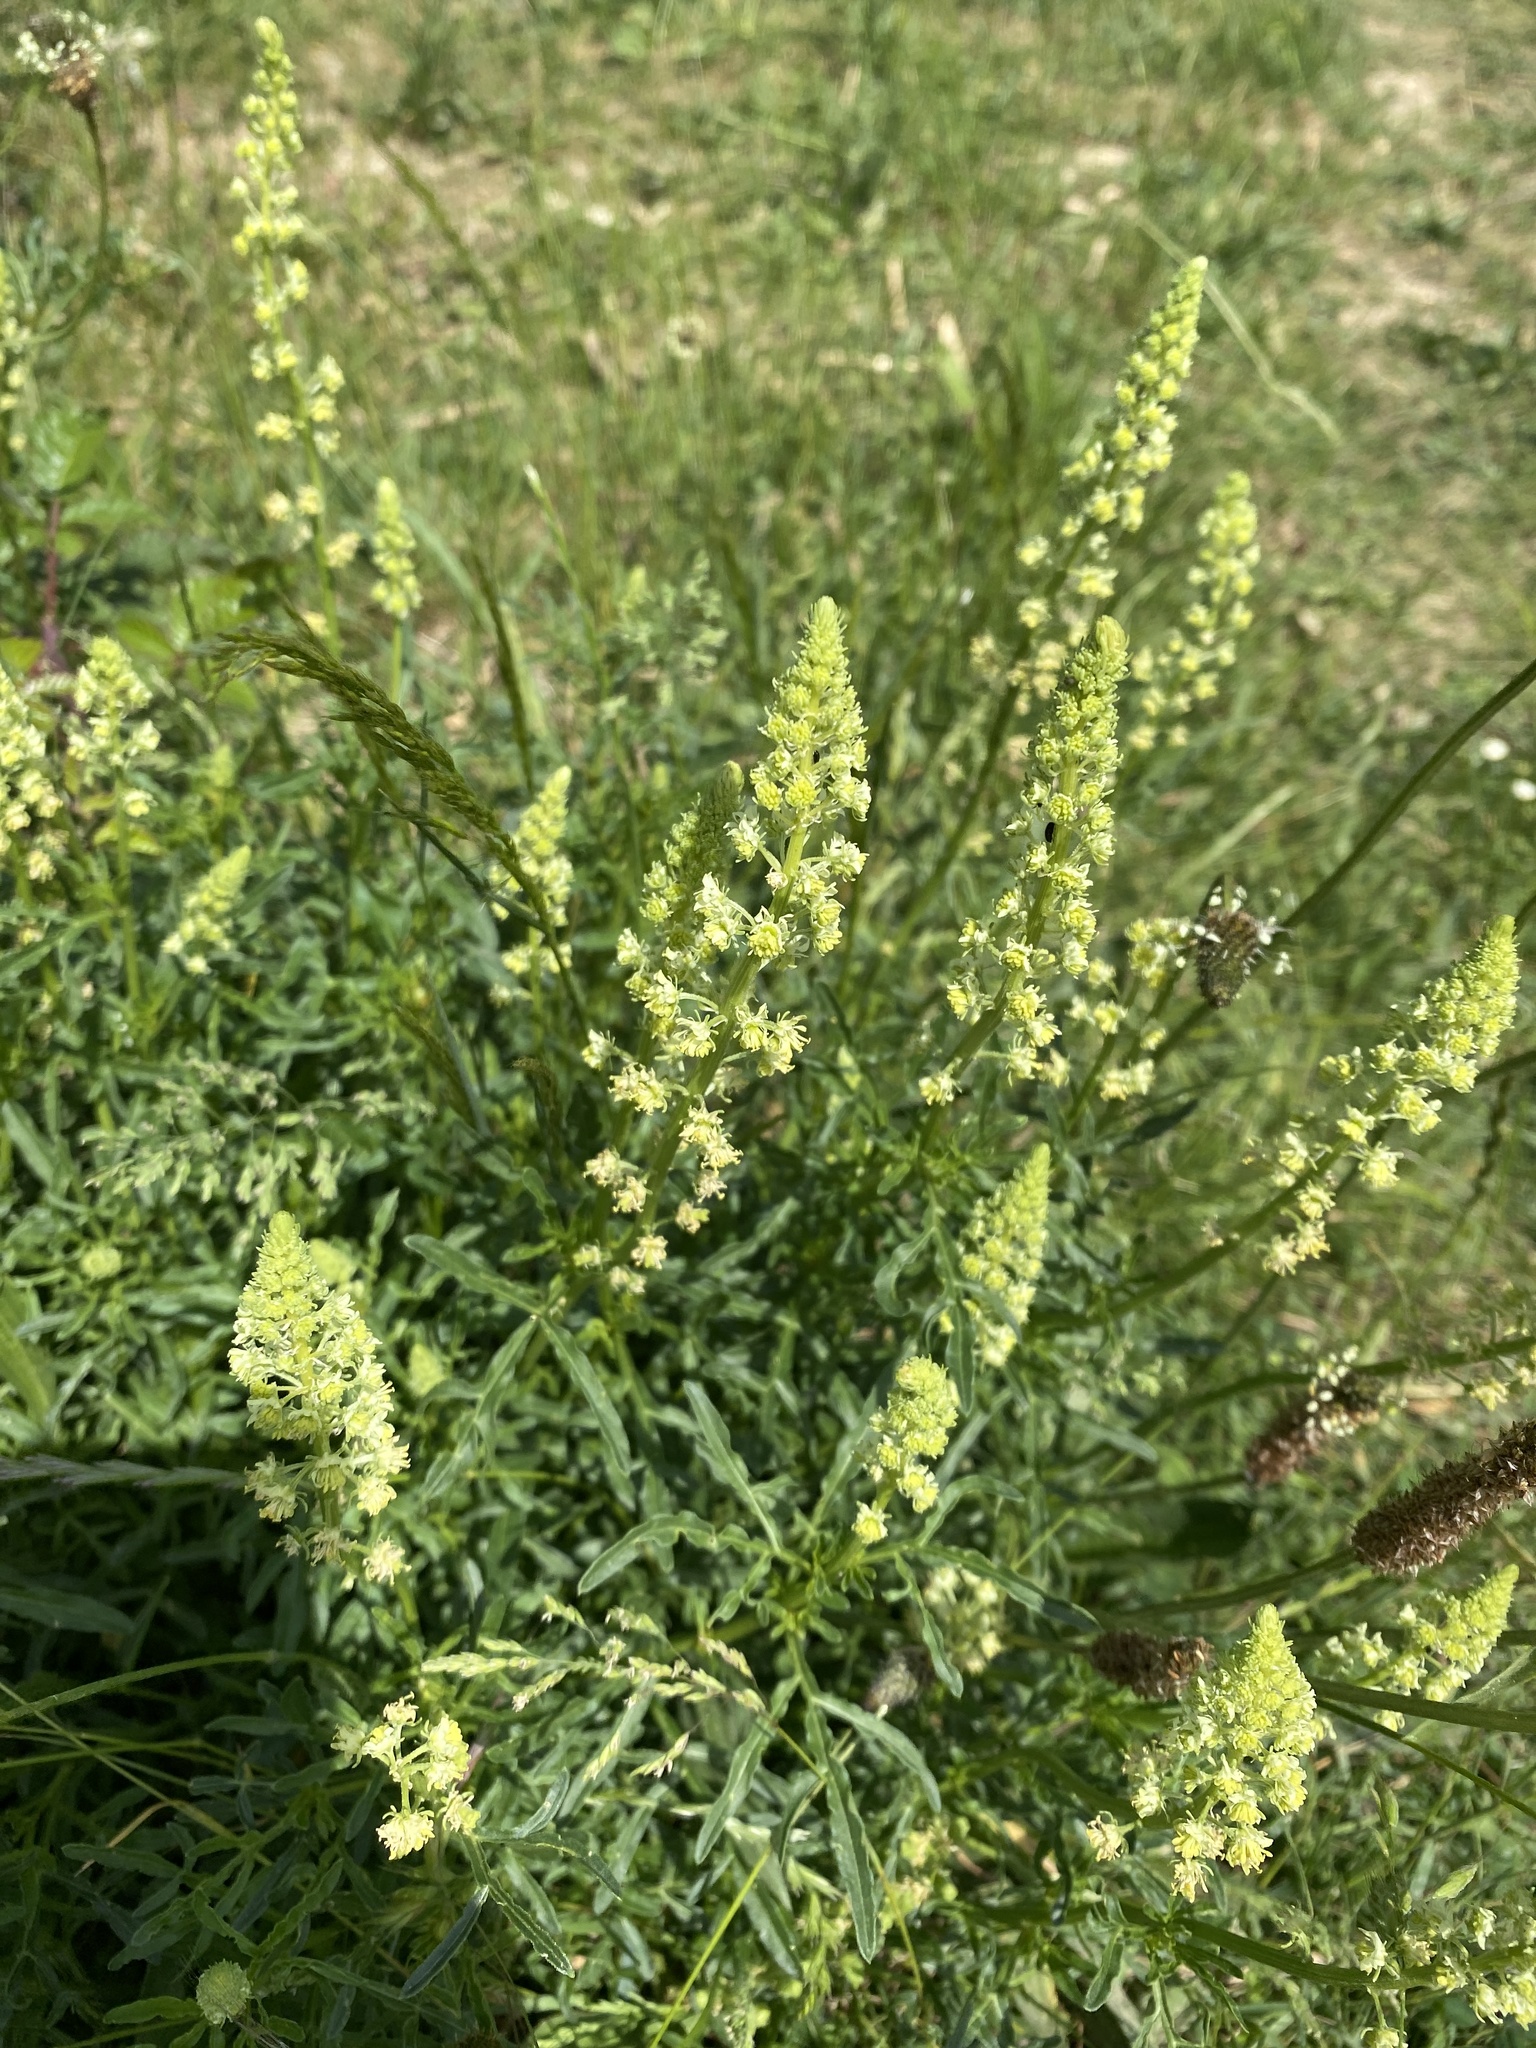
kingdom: Plantae
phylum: Tracheophyta
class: Magnoliopsida
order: Brassicales
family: Resedaceae
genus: Reseda
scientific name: Reseda lutea
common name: Wild mignonette
